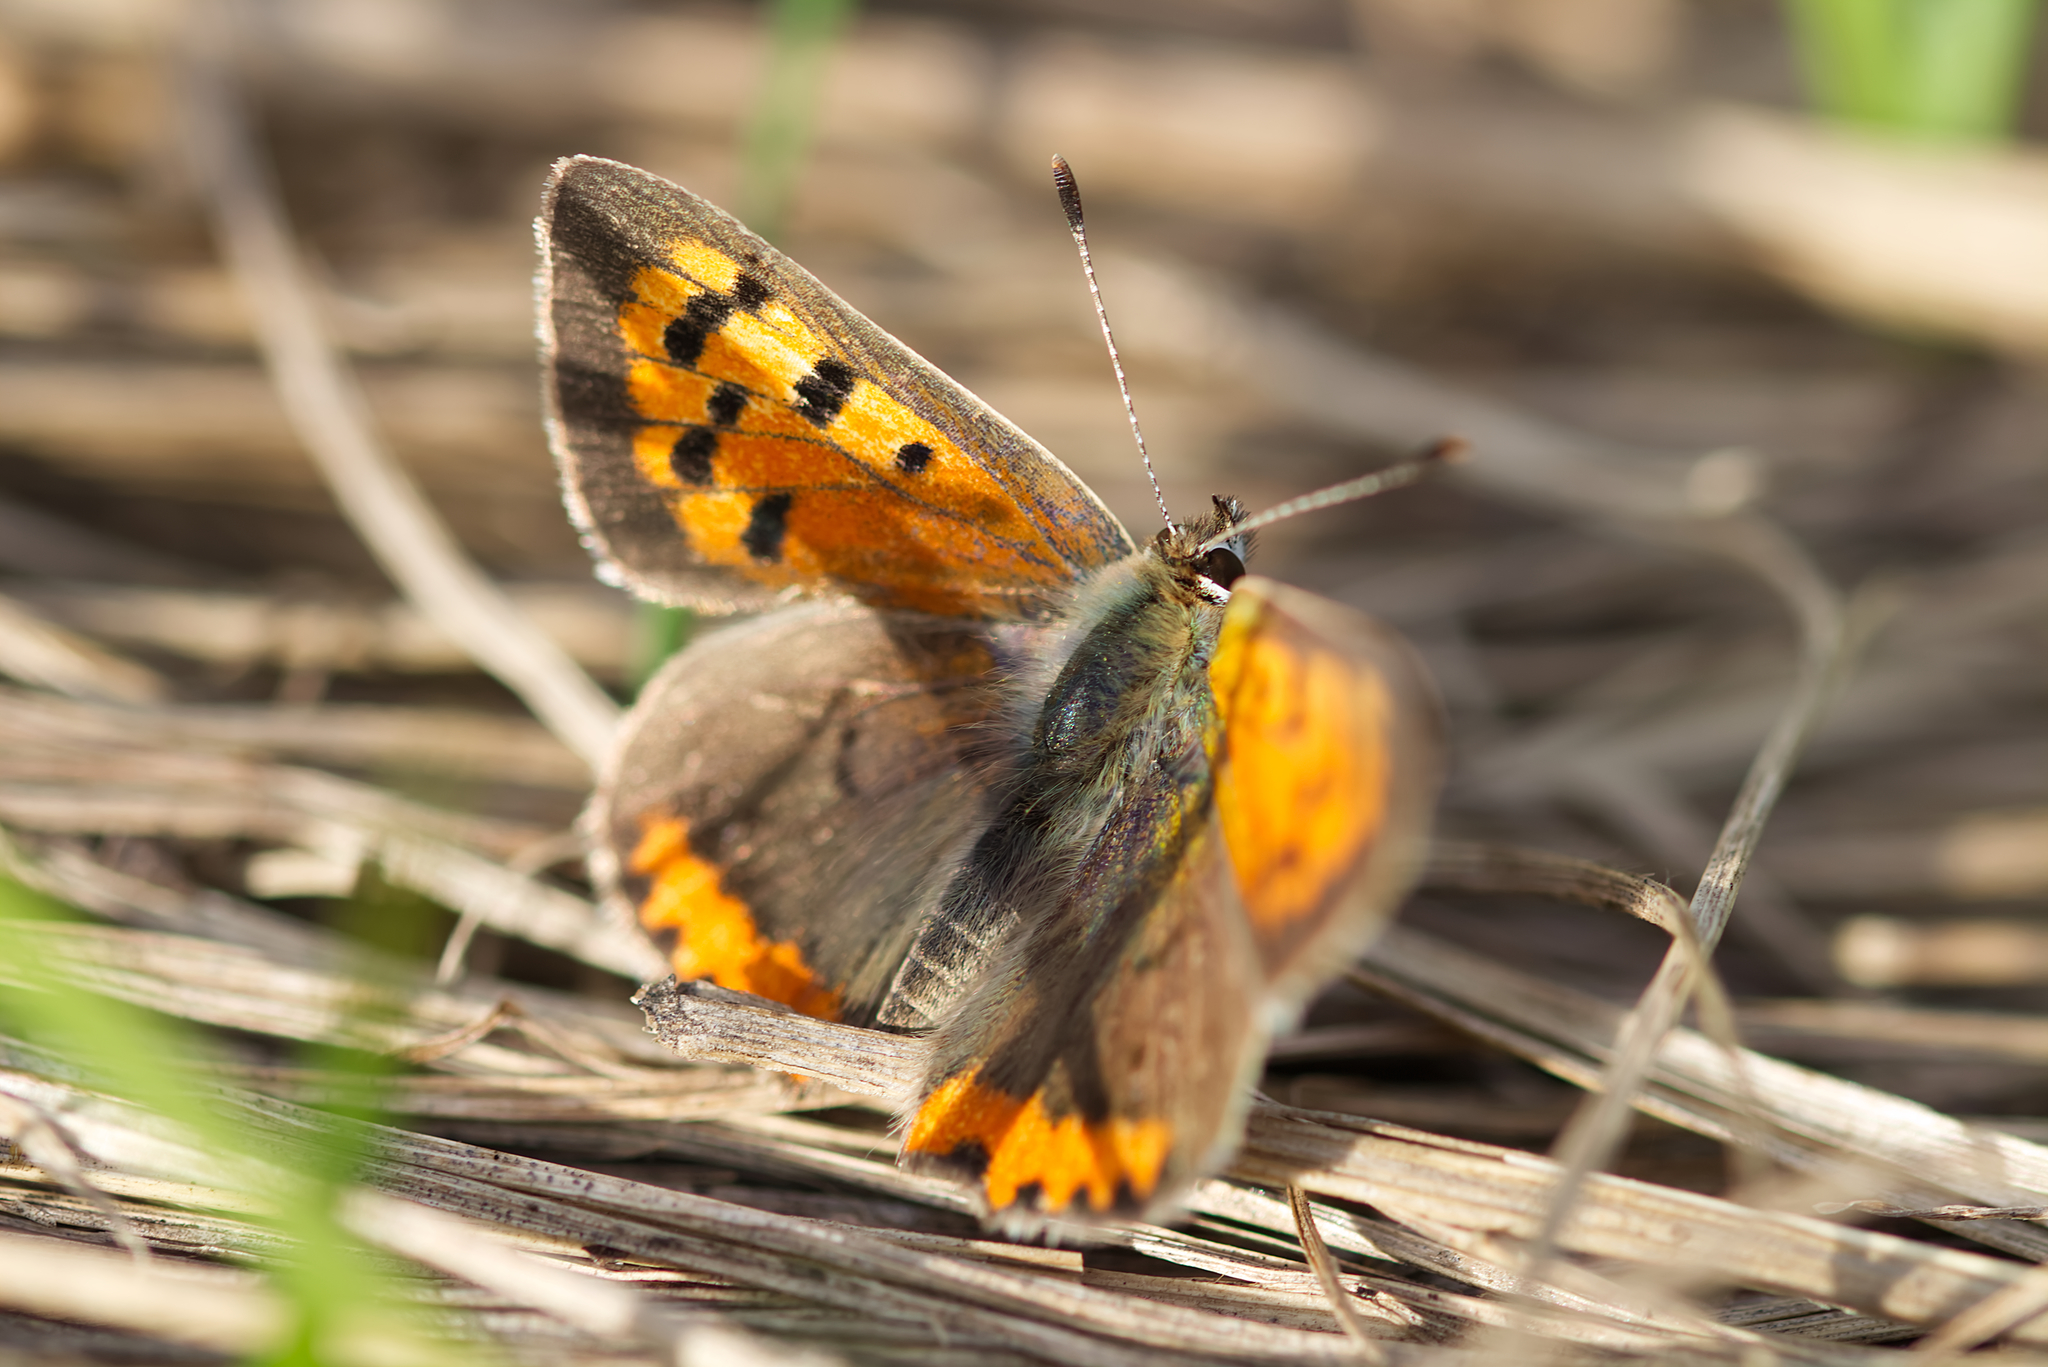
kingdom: Animalia
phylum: Arthropoda
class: Insecta
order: Lepidoptera
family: Lycaenidae
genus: Lycaena
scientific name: Lycaena phlaeas
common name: Small copper
